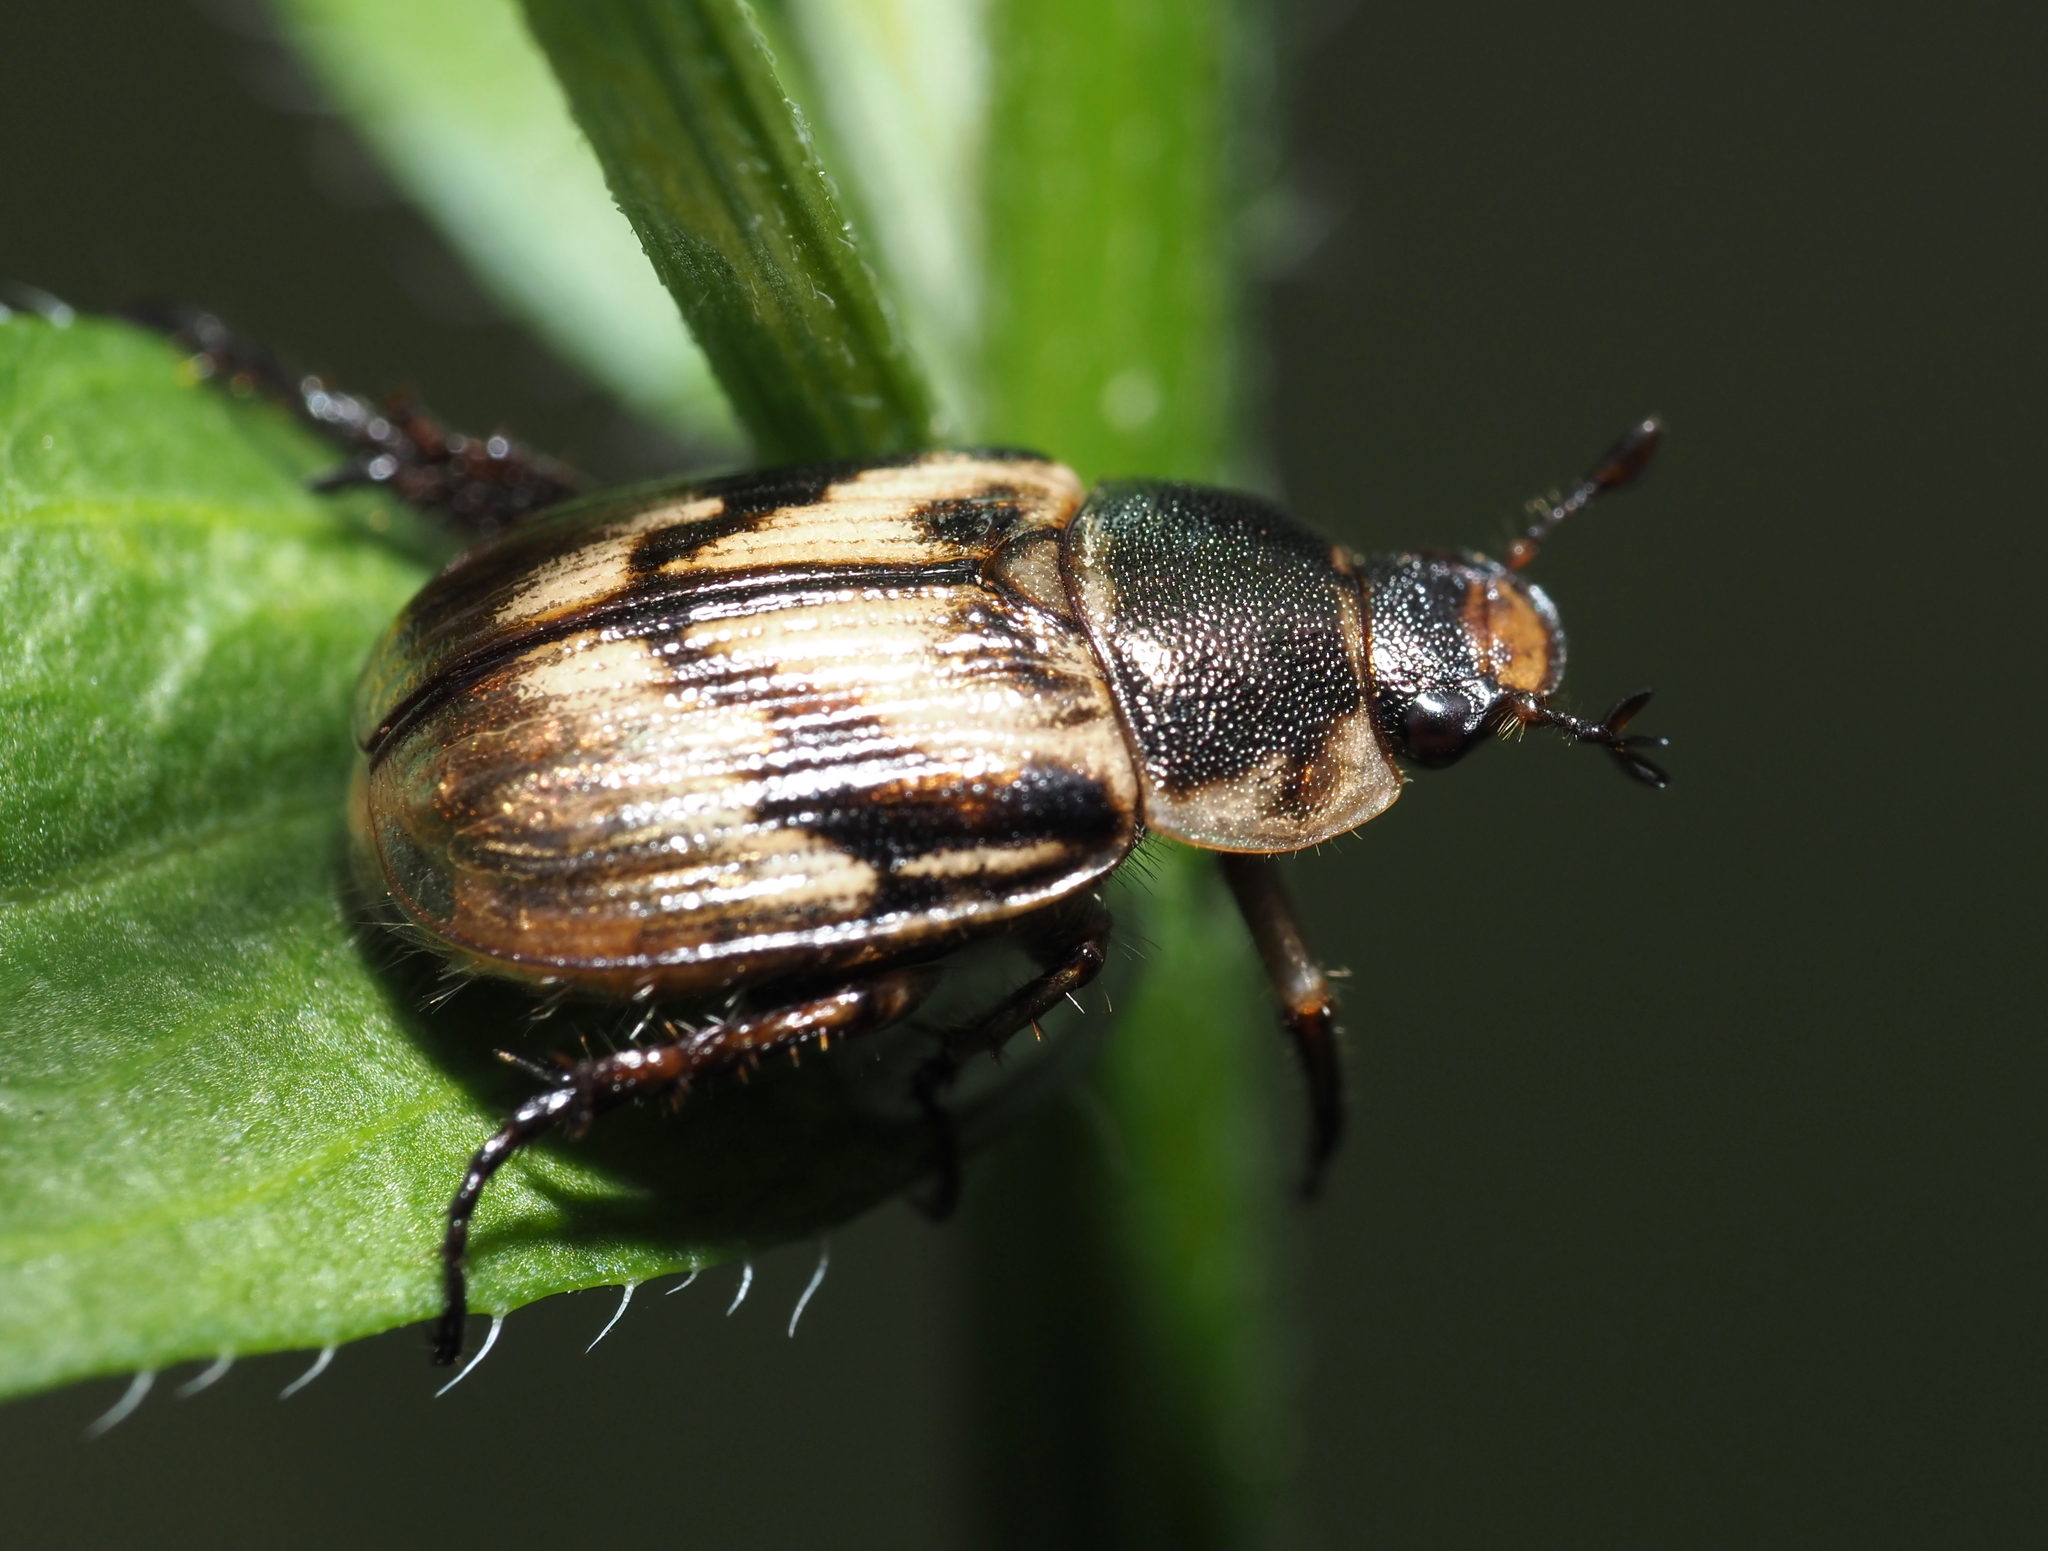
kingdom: Animalia
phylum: Arthropoda
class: Insecta
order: Coleoptera
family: Scarabaeidae
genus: Exomala
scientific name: Exomala orientalis
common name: Oriental beetle
